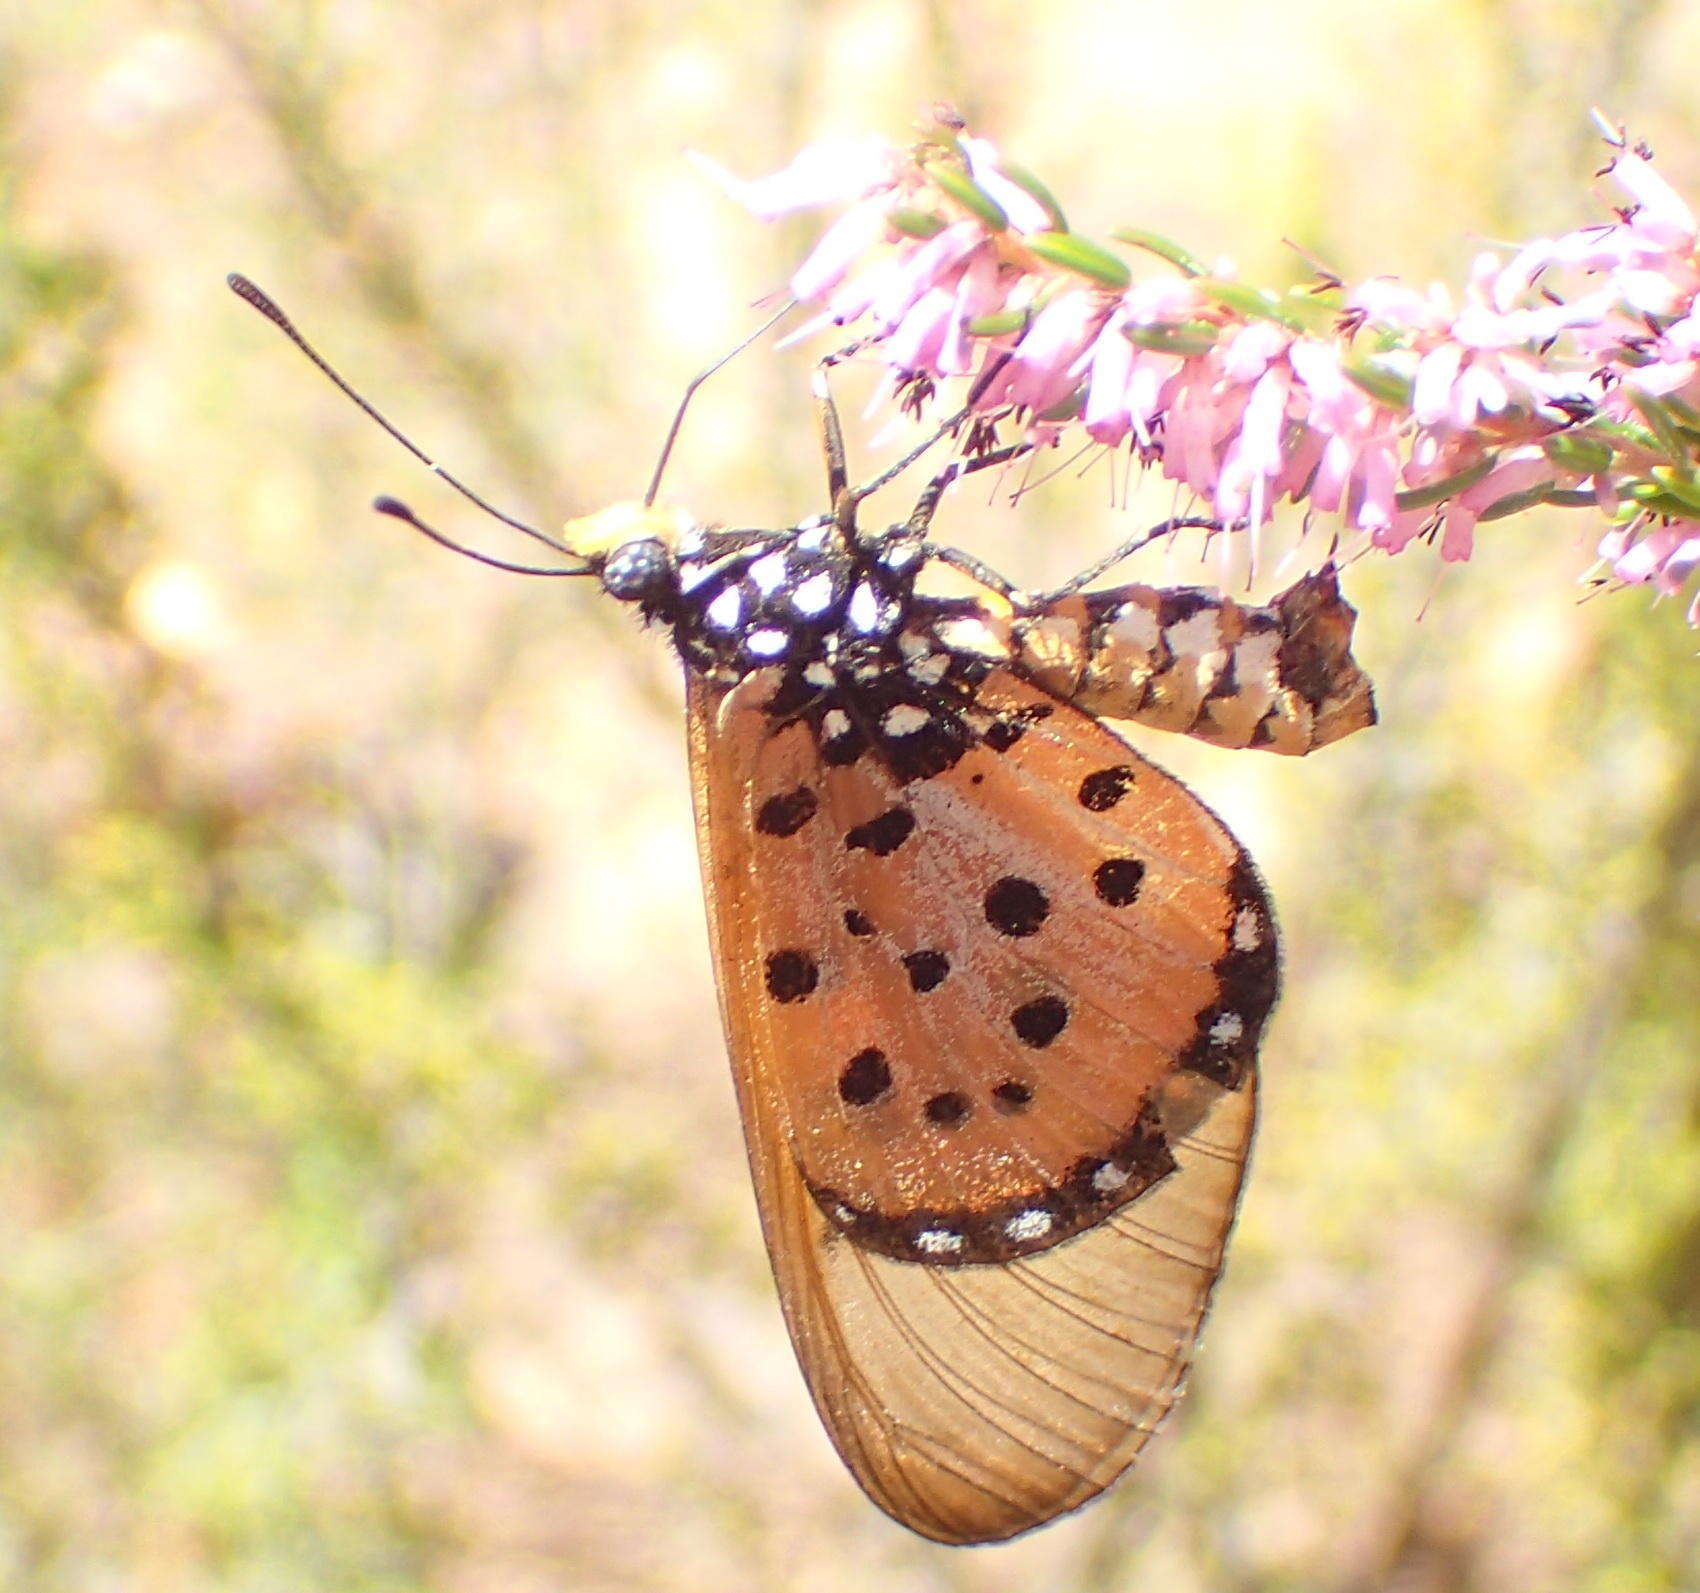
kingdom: Animalia
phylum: Arthropoda
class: Insecta
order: Lepidoptera
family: Nymphalidae
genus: Acraea
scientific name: Acraea neobule
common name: Dancing acraea
